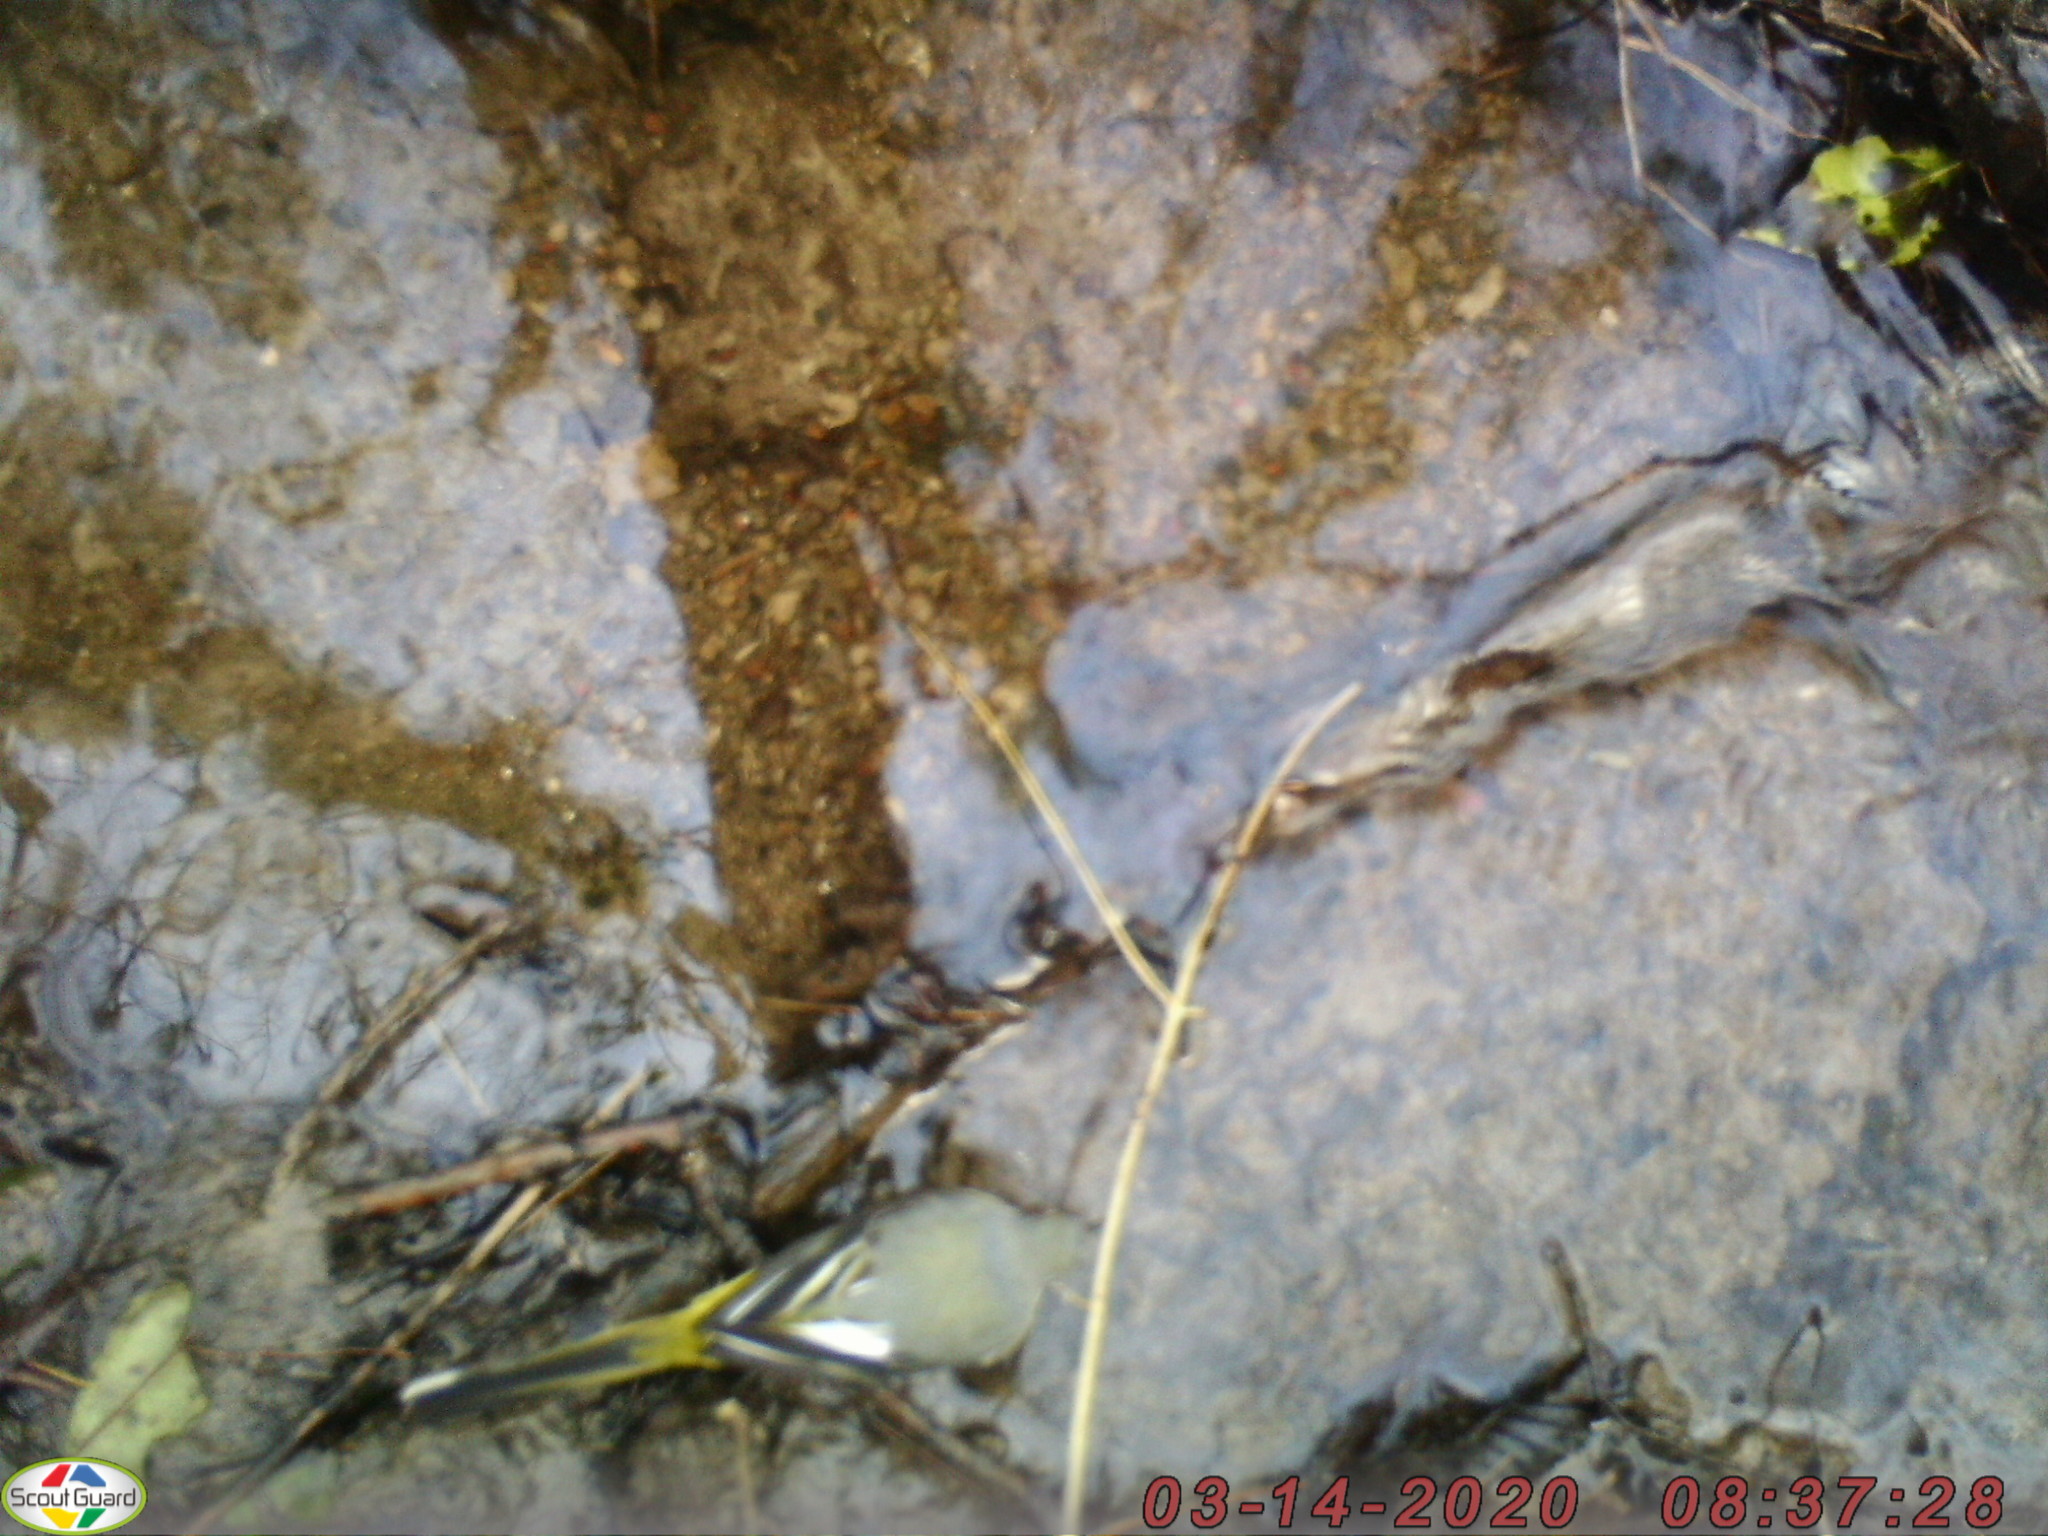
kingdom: Animalia
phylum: Chordata
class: Aves
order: Passeriformes
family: Motacillidae
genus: Motacilla
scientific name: Motacilla cinerea
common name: Grey wagtail
